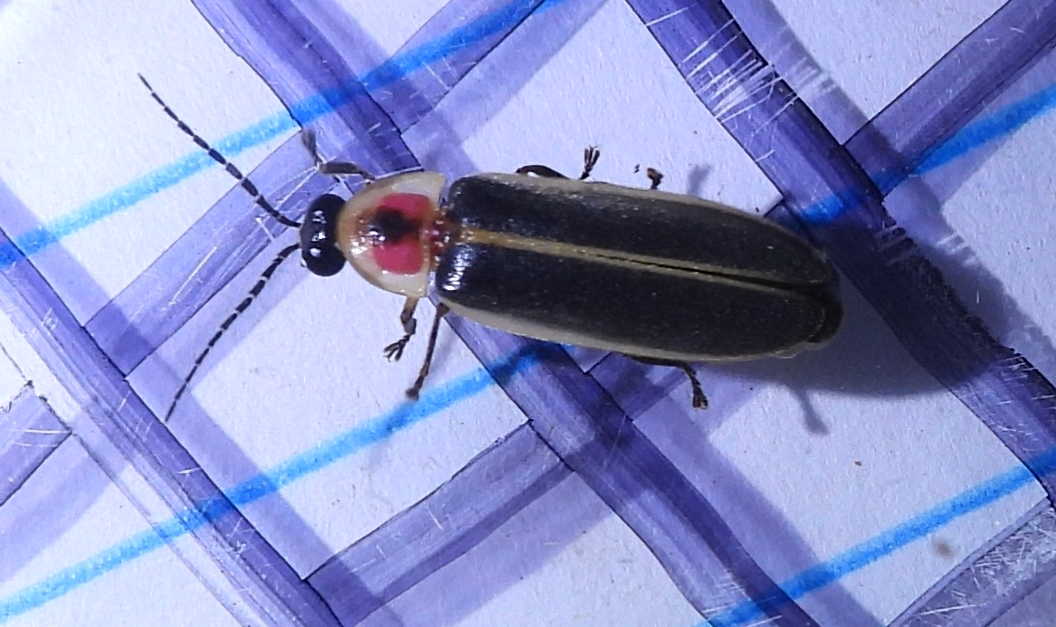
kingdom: Animalia
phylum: Arthropoda
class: Insecta
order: Coleoptera
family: Lampyridae
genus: Photinus
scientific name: Photinus pyralis
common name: Big dipper firefly
